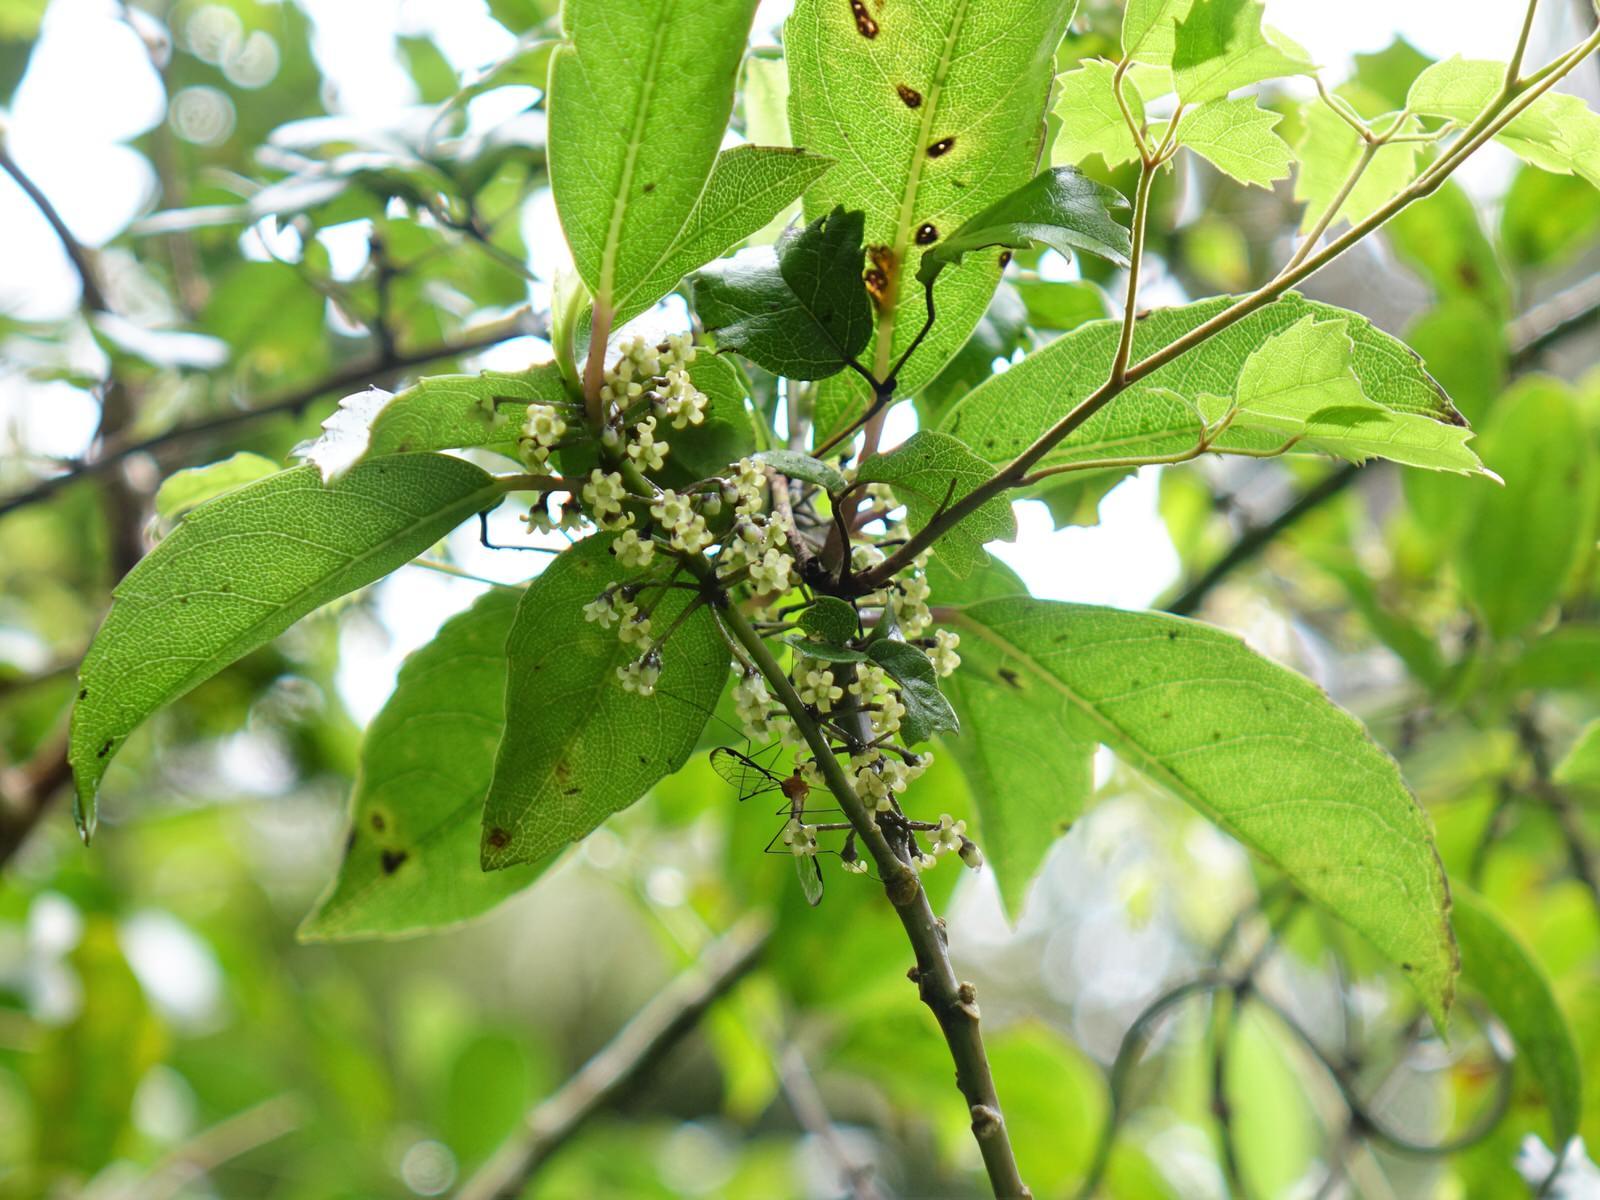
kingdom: Plantae
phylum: Tracheophyta
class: Magnoliopsida
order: Malpighiales
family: Violaceae
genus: Melicytus
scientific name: Melicytus macrophyllus
